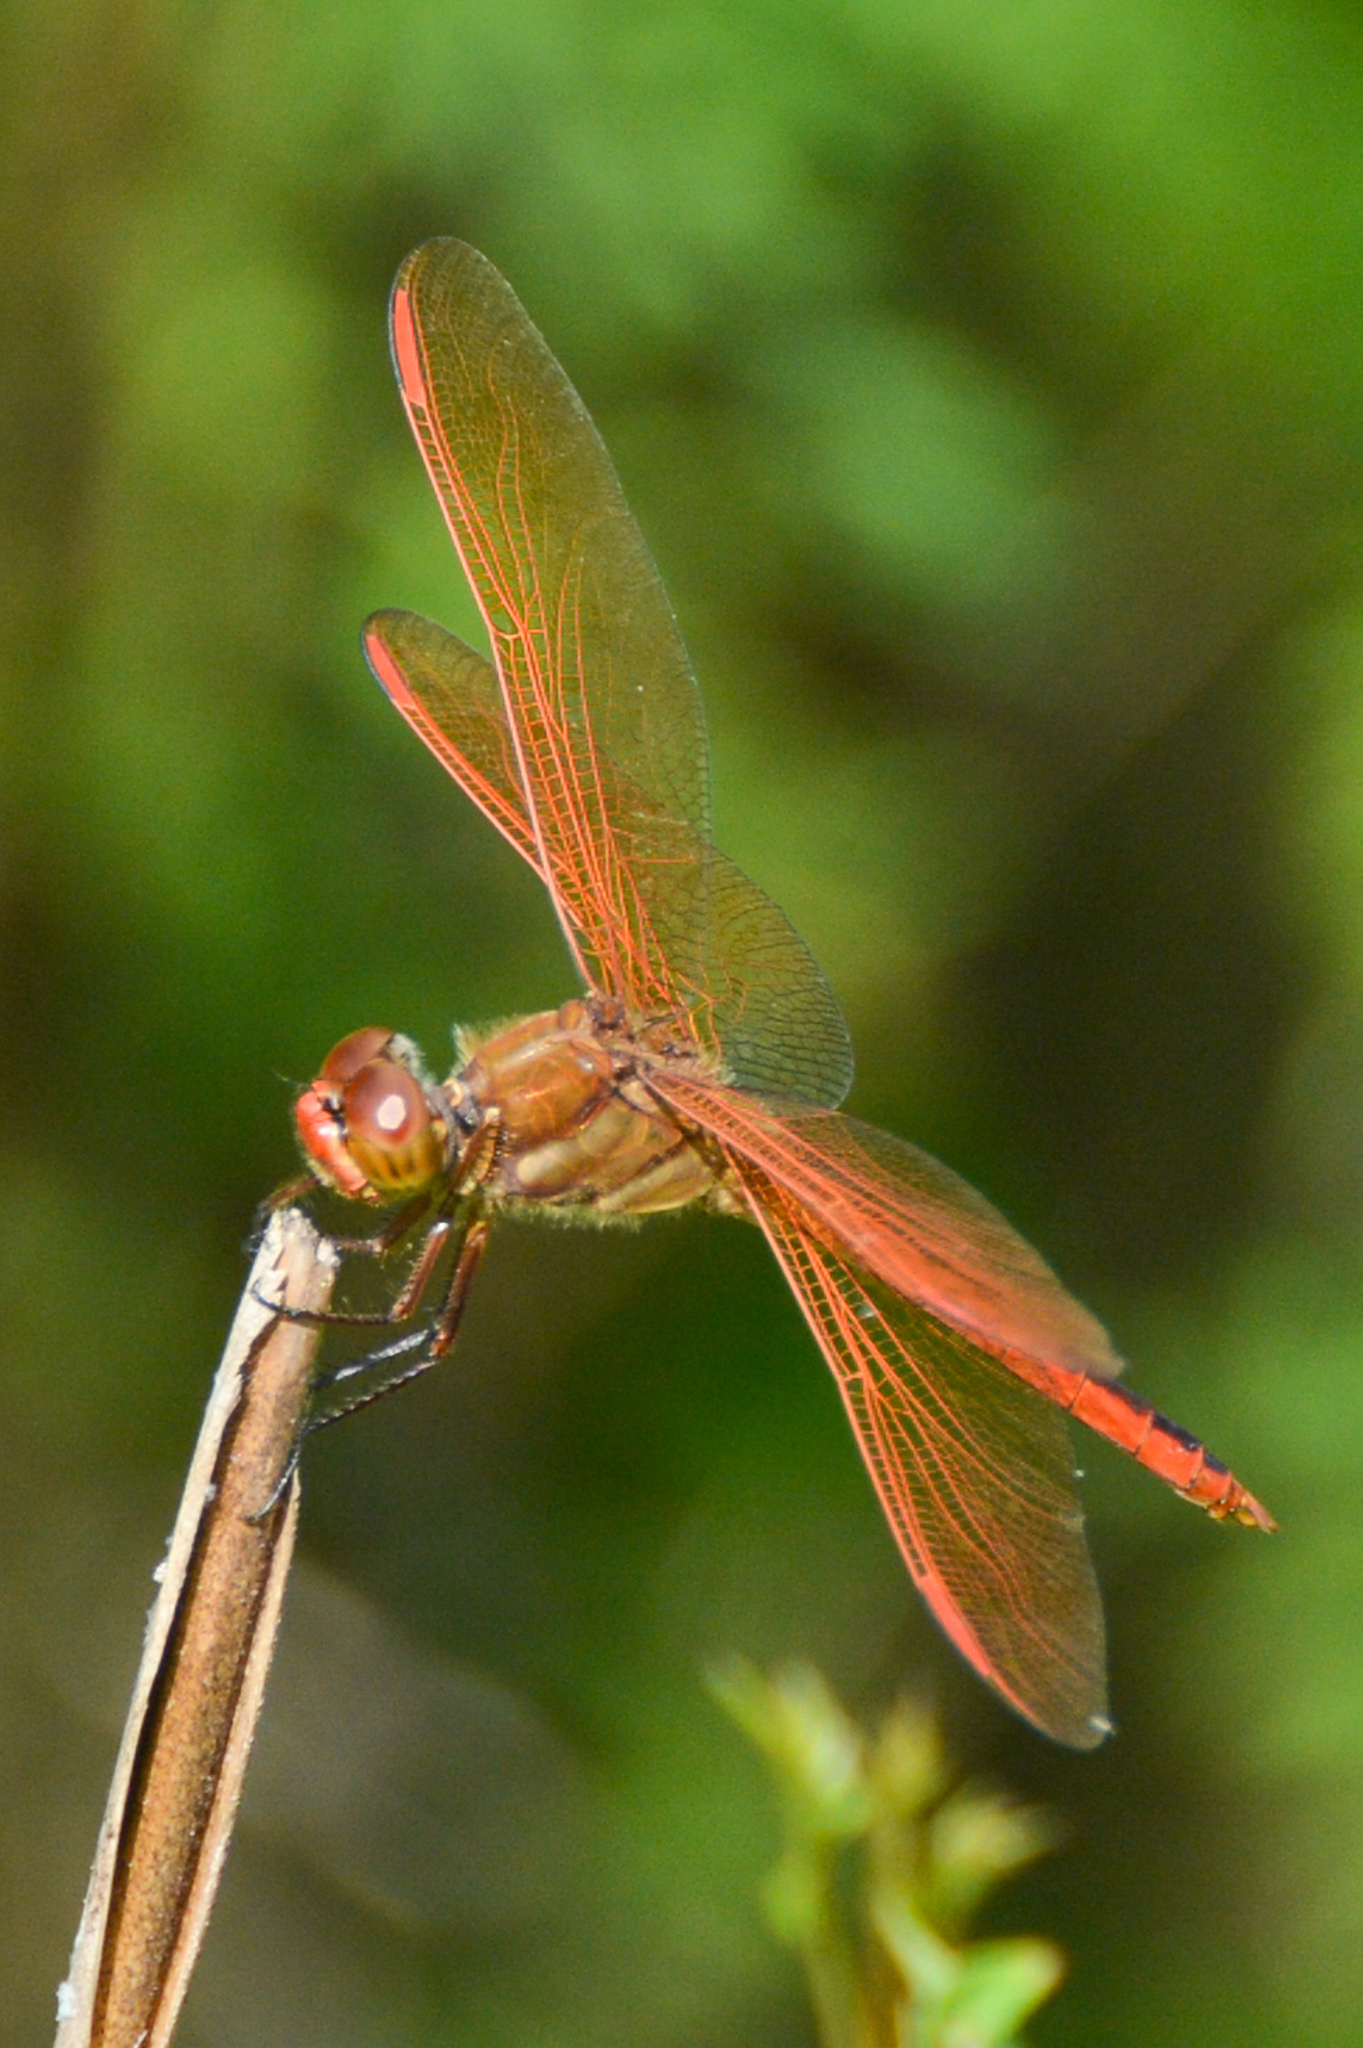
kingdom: Animalia
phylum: Arthropoda
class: Insecta
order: Odonata
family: Libellulidae
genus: Libellula
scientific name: Libellula auripennis
